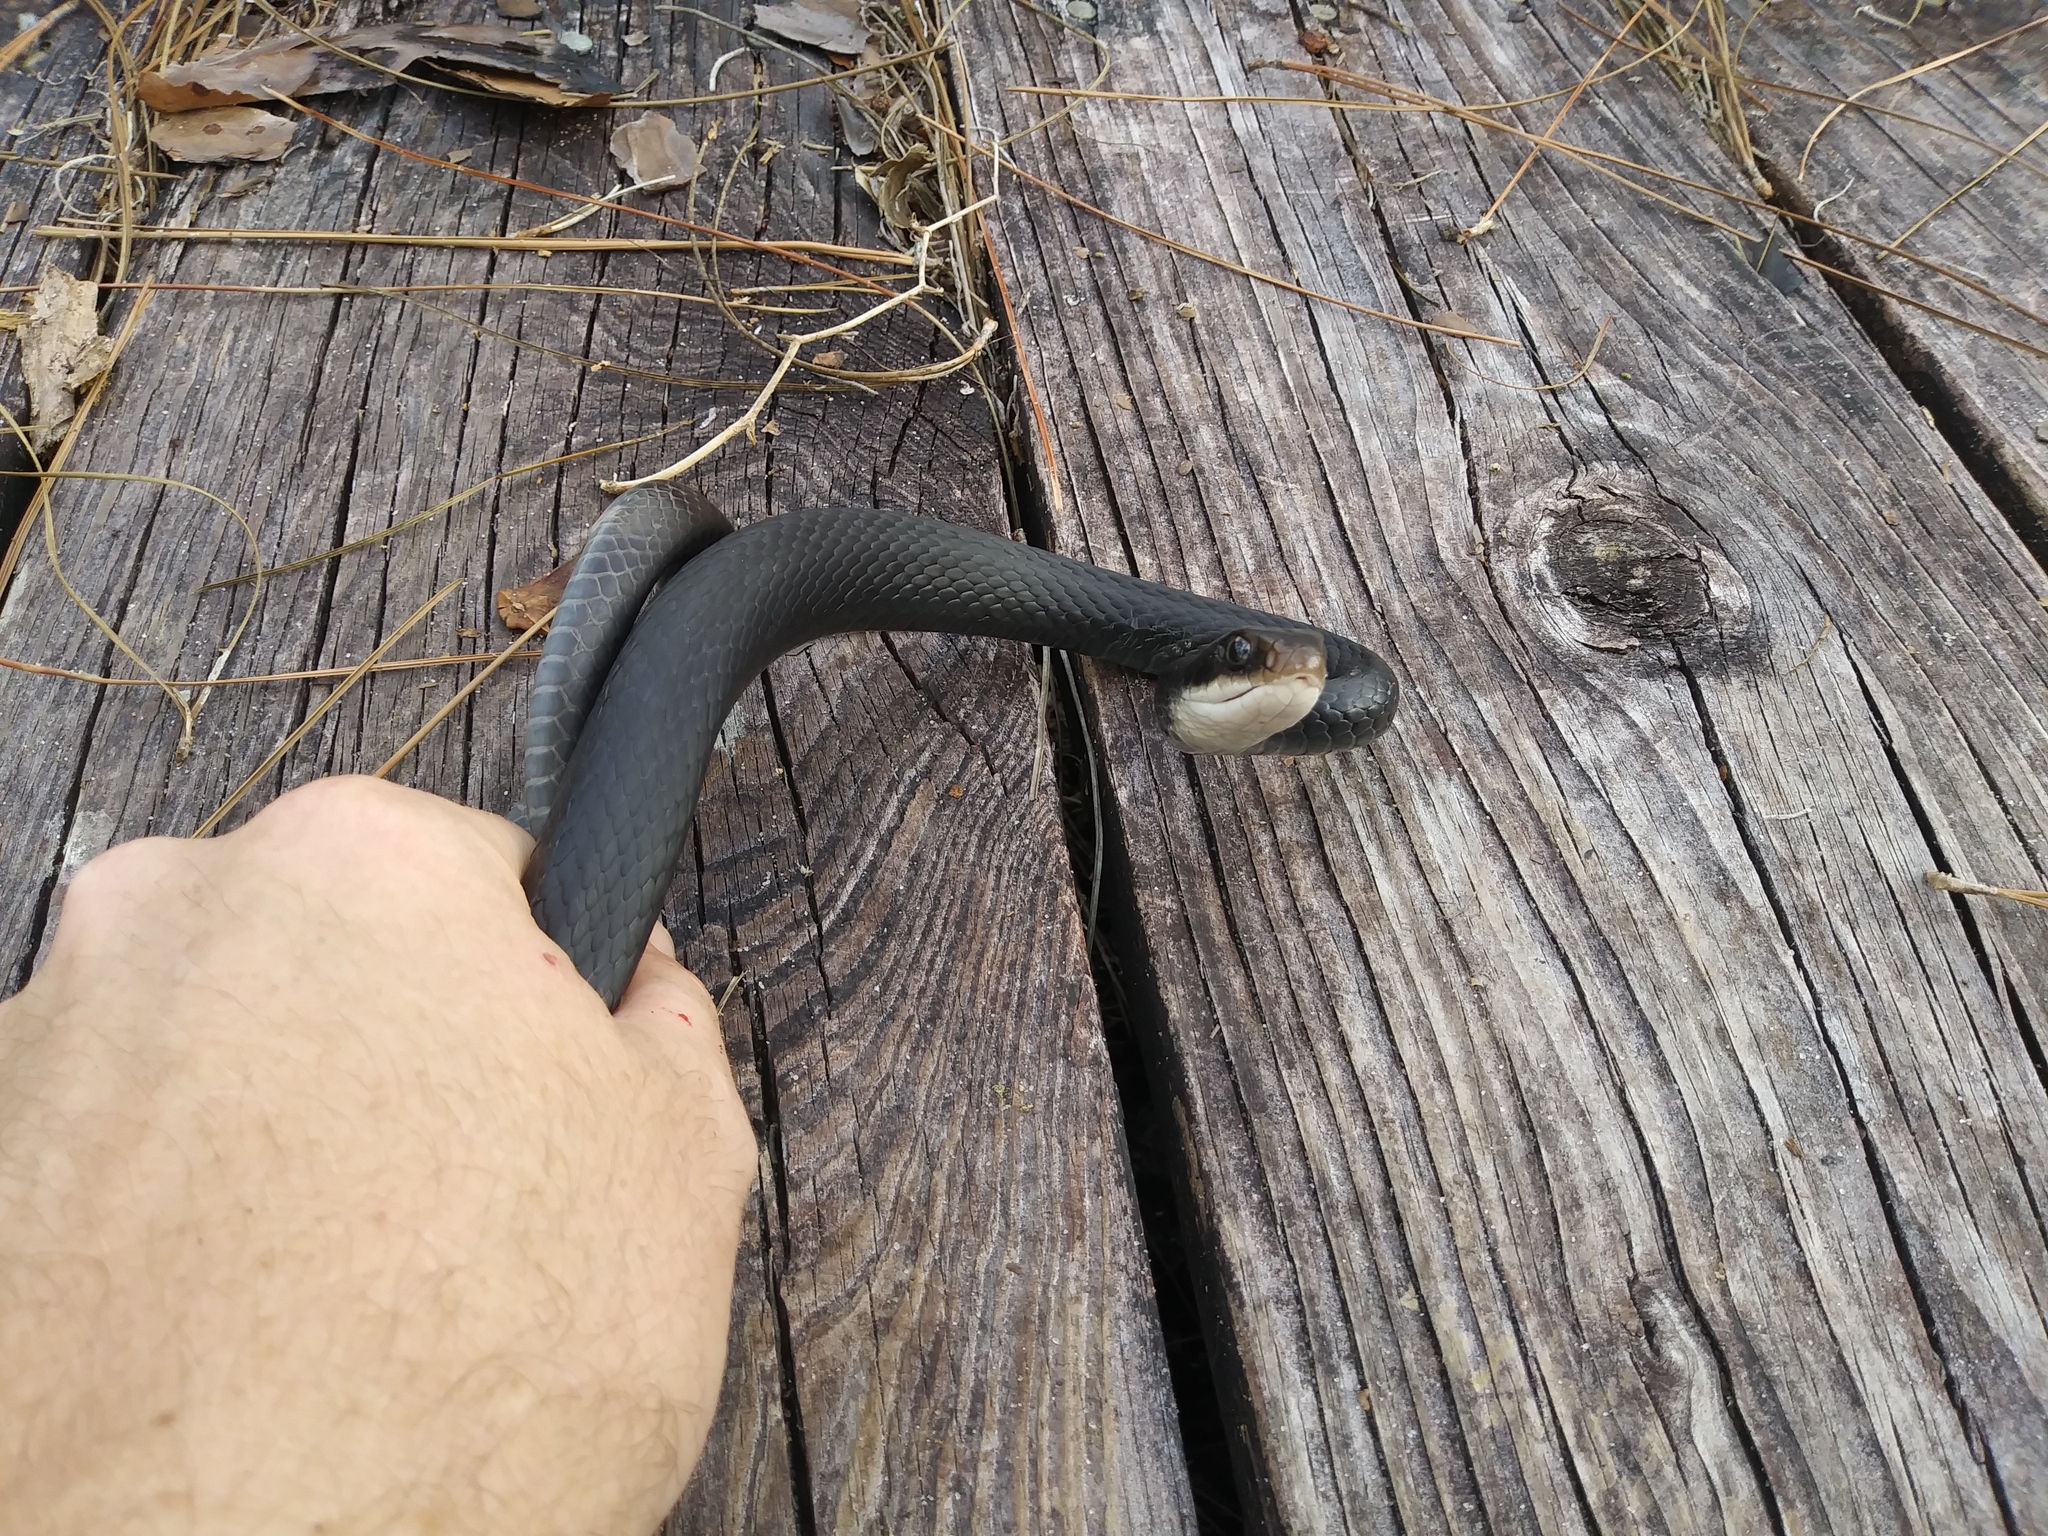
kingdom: Animalia
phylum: Chordata
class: Squamata
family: Colubridae
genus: Coluber
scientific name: Coluber constrictor
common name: Eastern racer
